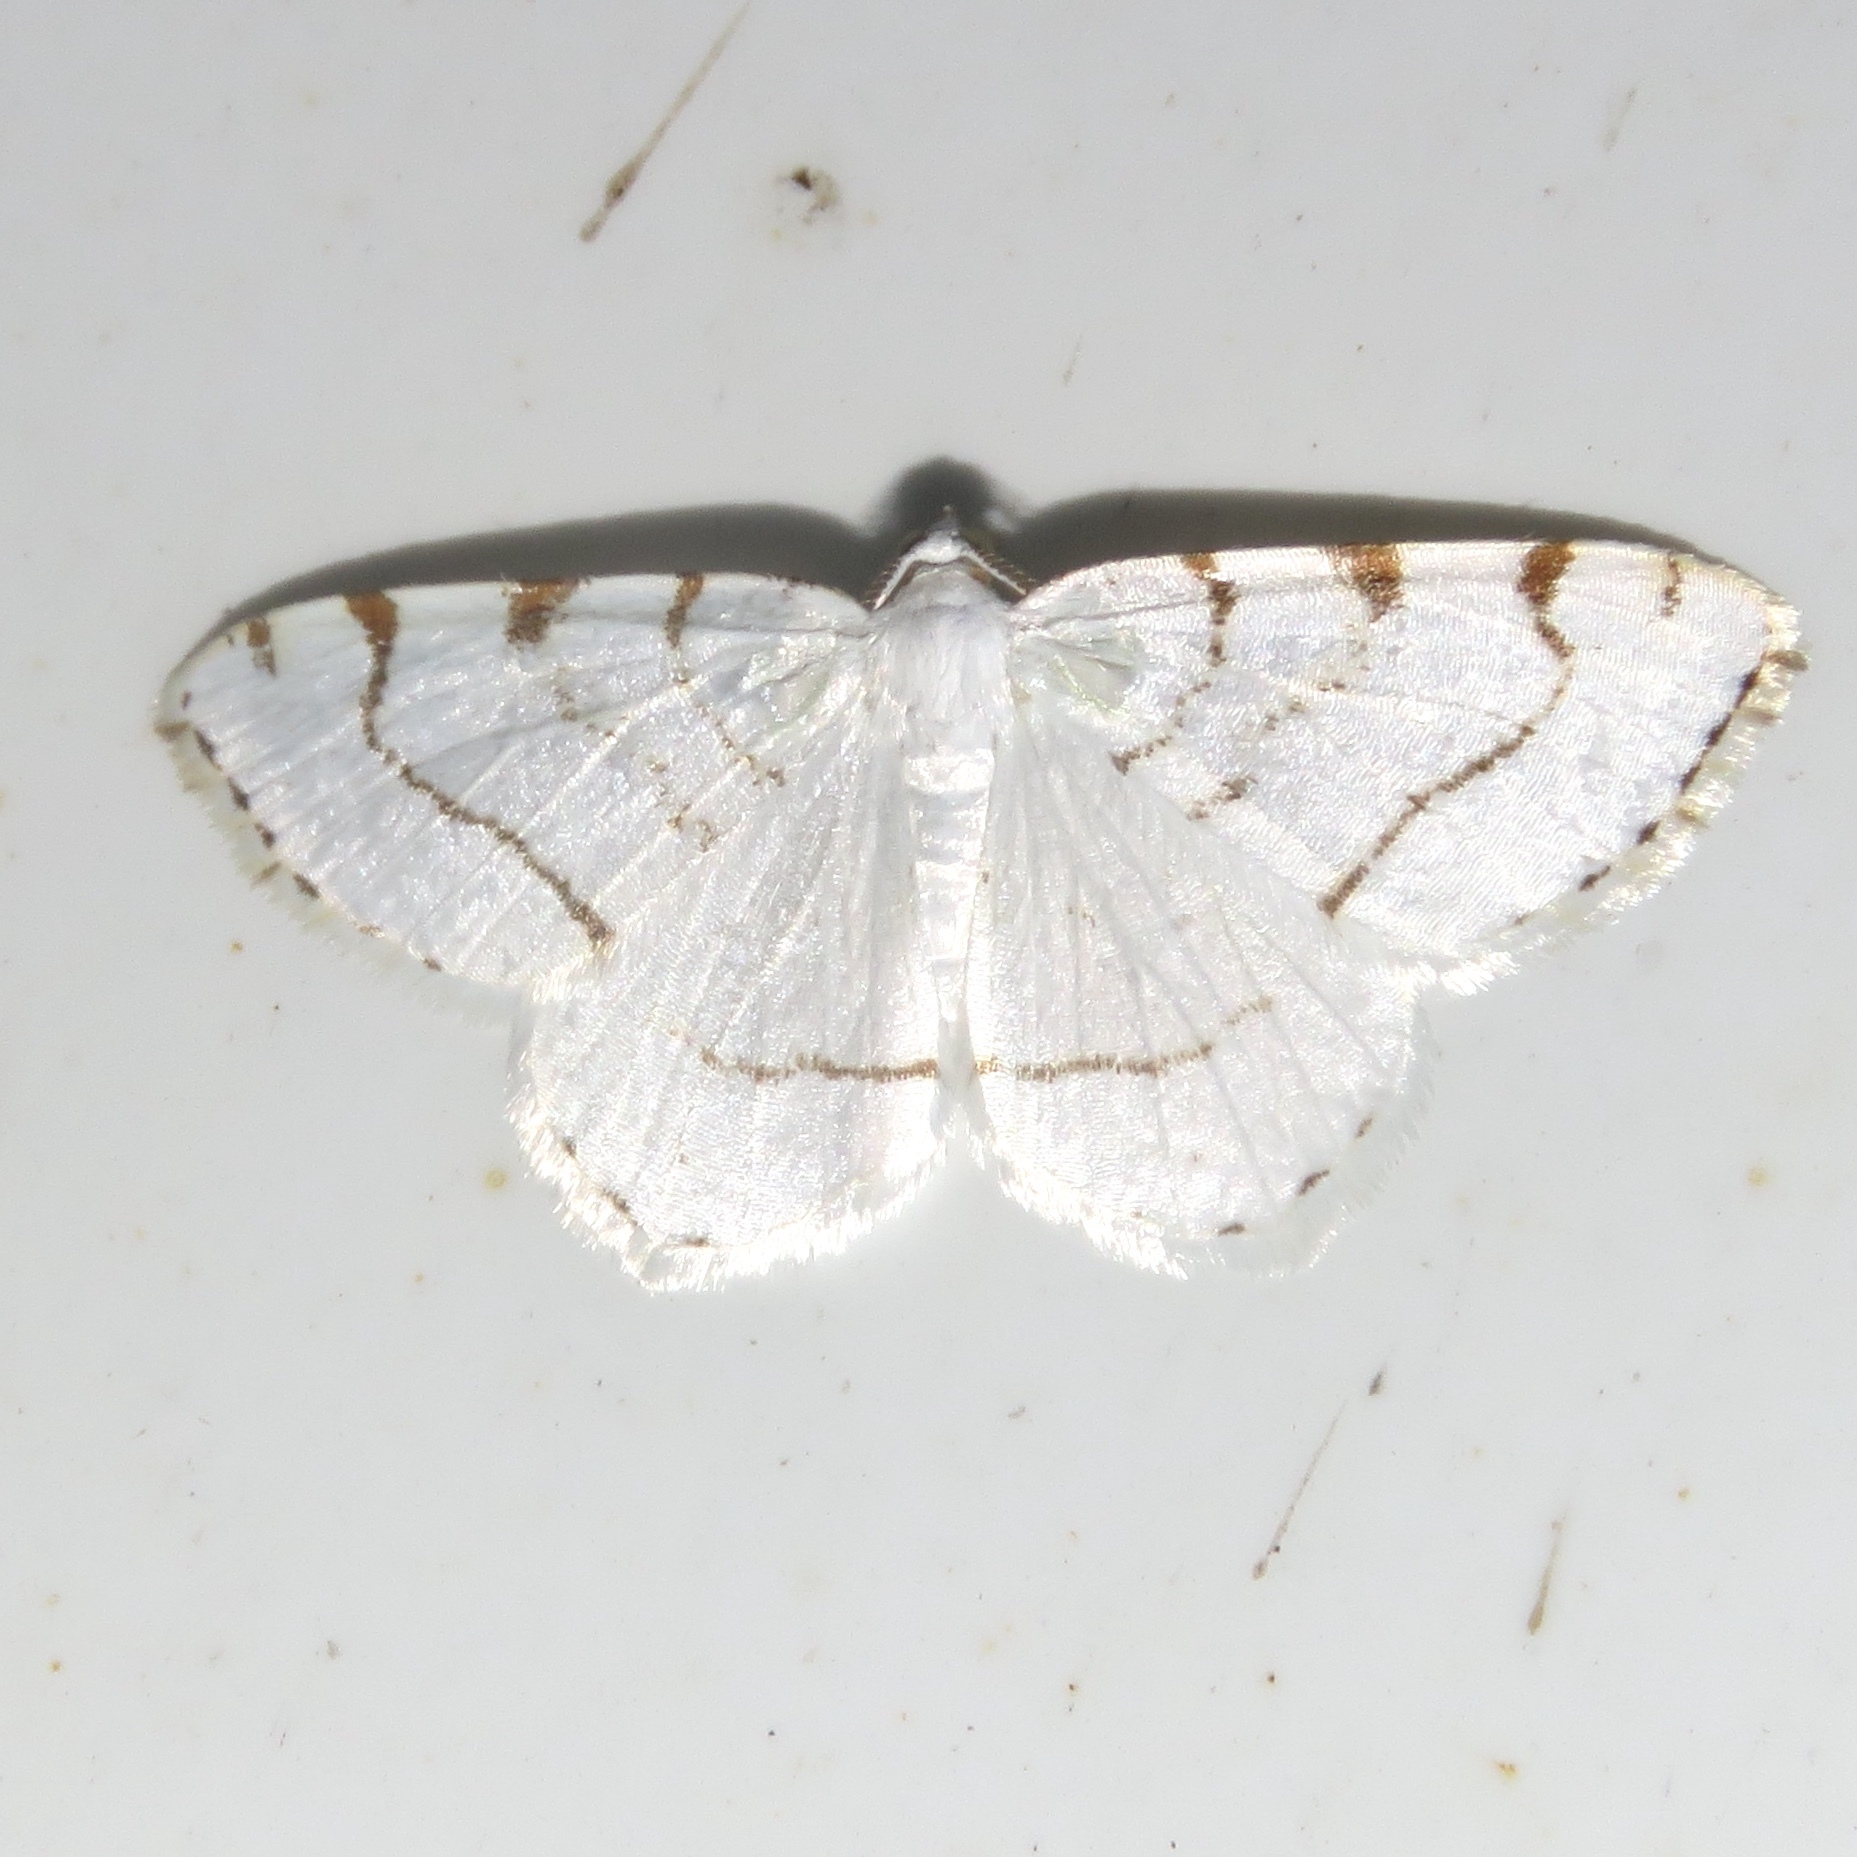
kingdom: Animalia
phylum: Arthropoda
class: Insecta
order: Lepidoptera
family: Geometridae
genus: Macaria
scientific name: Macaria pustularia
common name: Lesser maple spanworm moth
